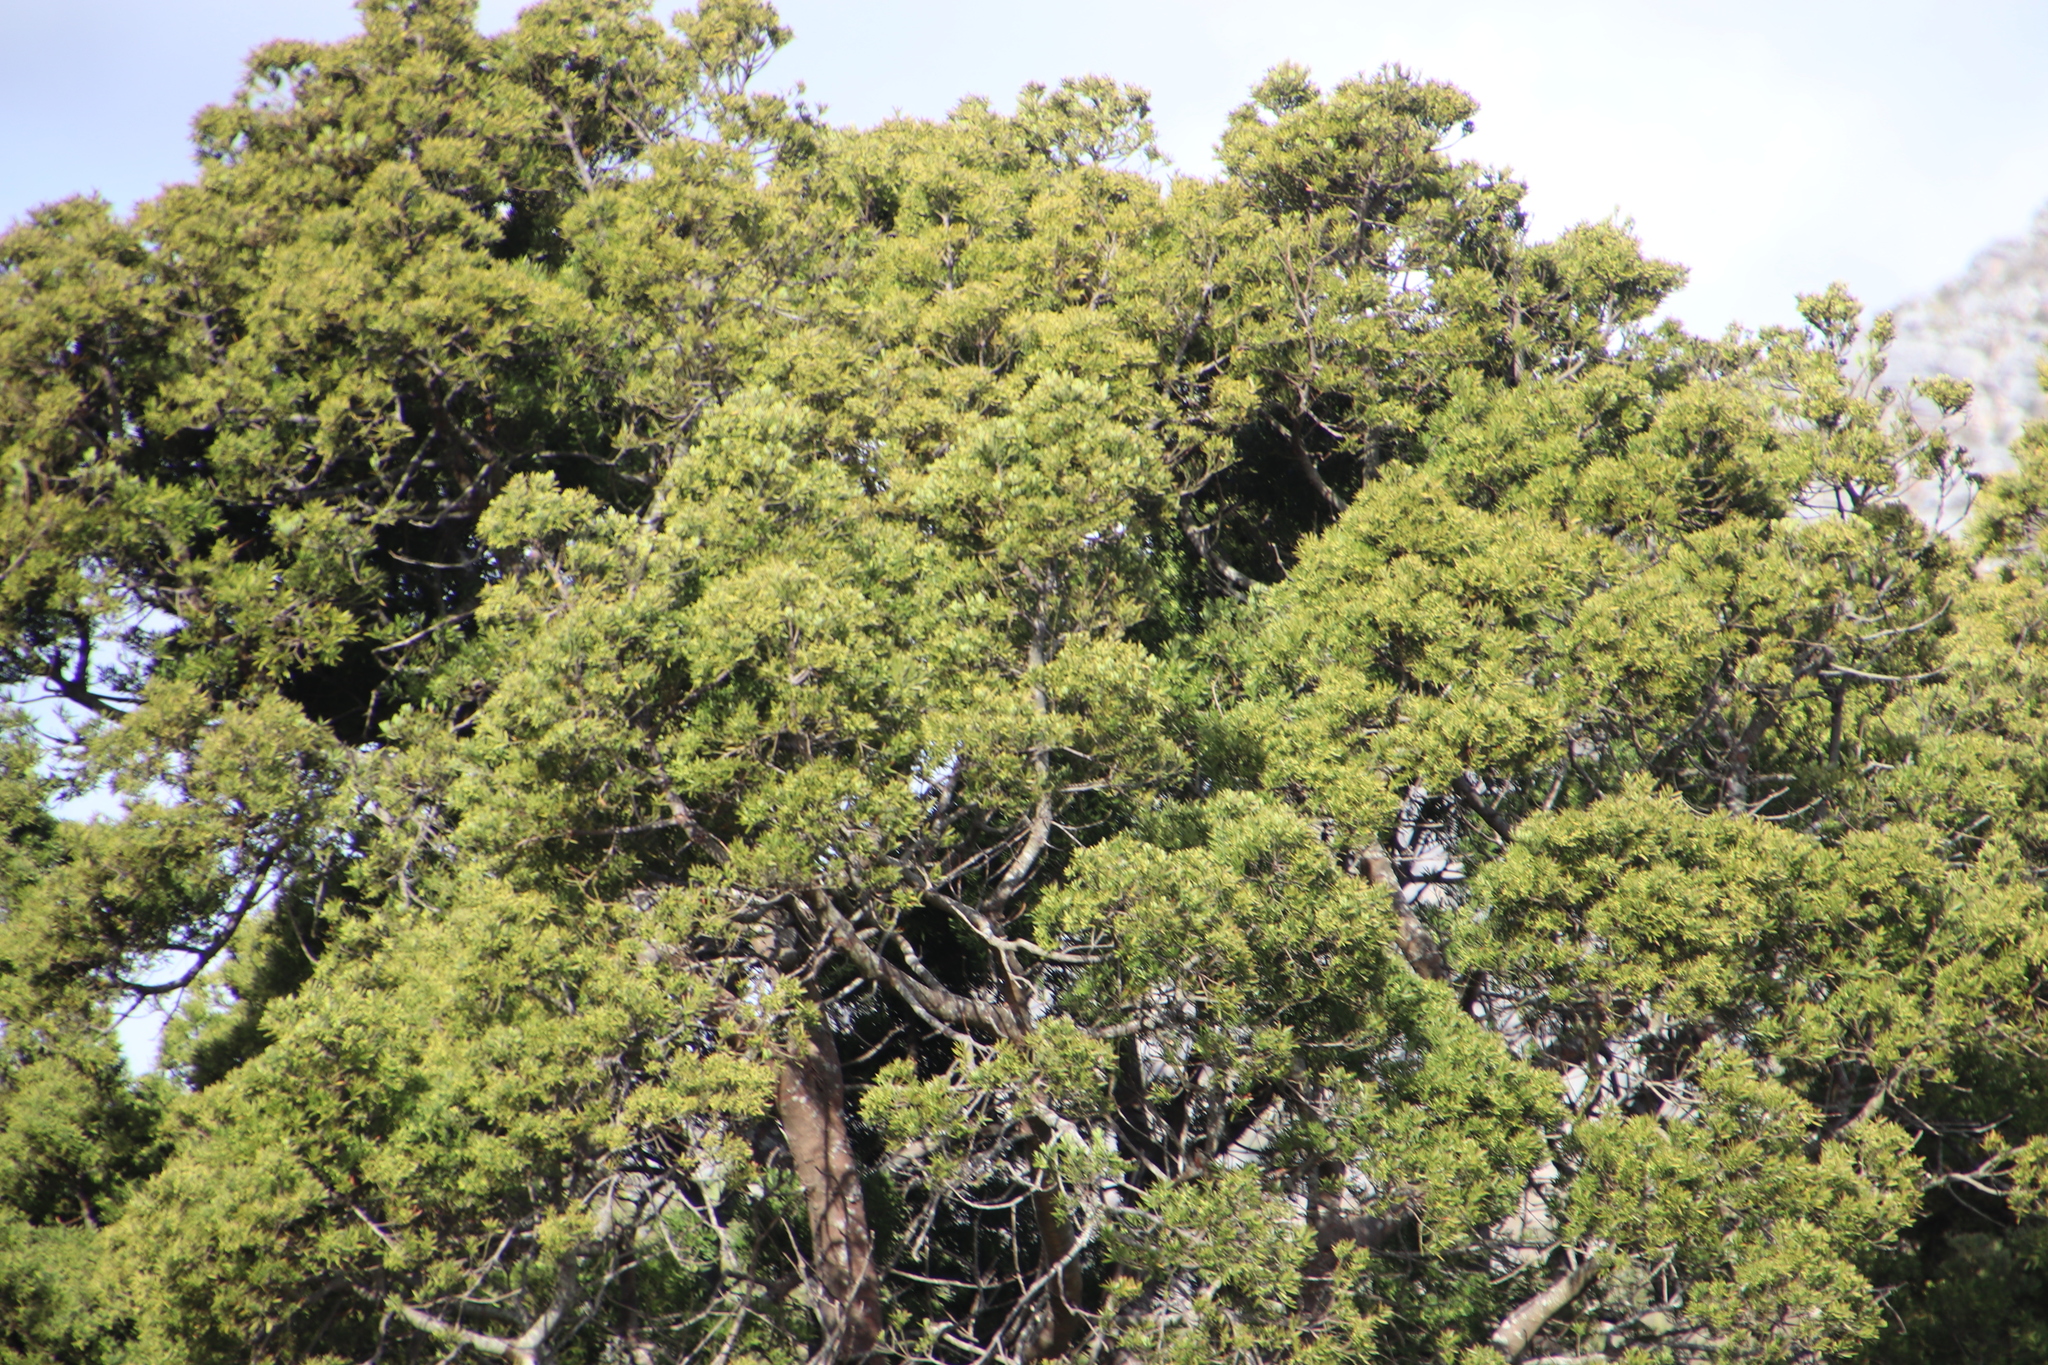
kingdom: Plantae
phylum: Tracheophyta
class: Pinopsida
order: Pinales
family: Podocarpaceae
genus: Afrocarpus
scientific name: Afrocarpus falcatus
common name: Bastard yellowwood
